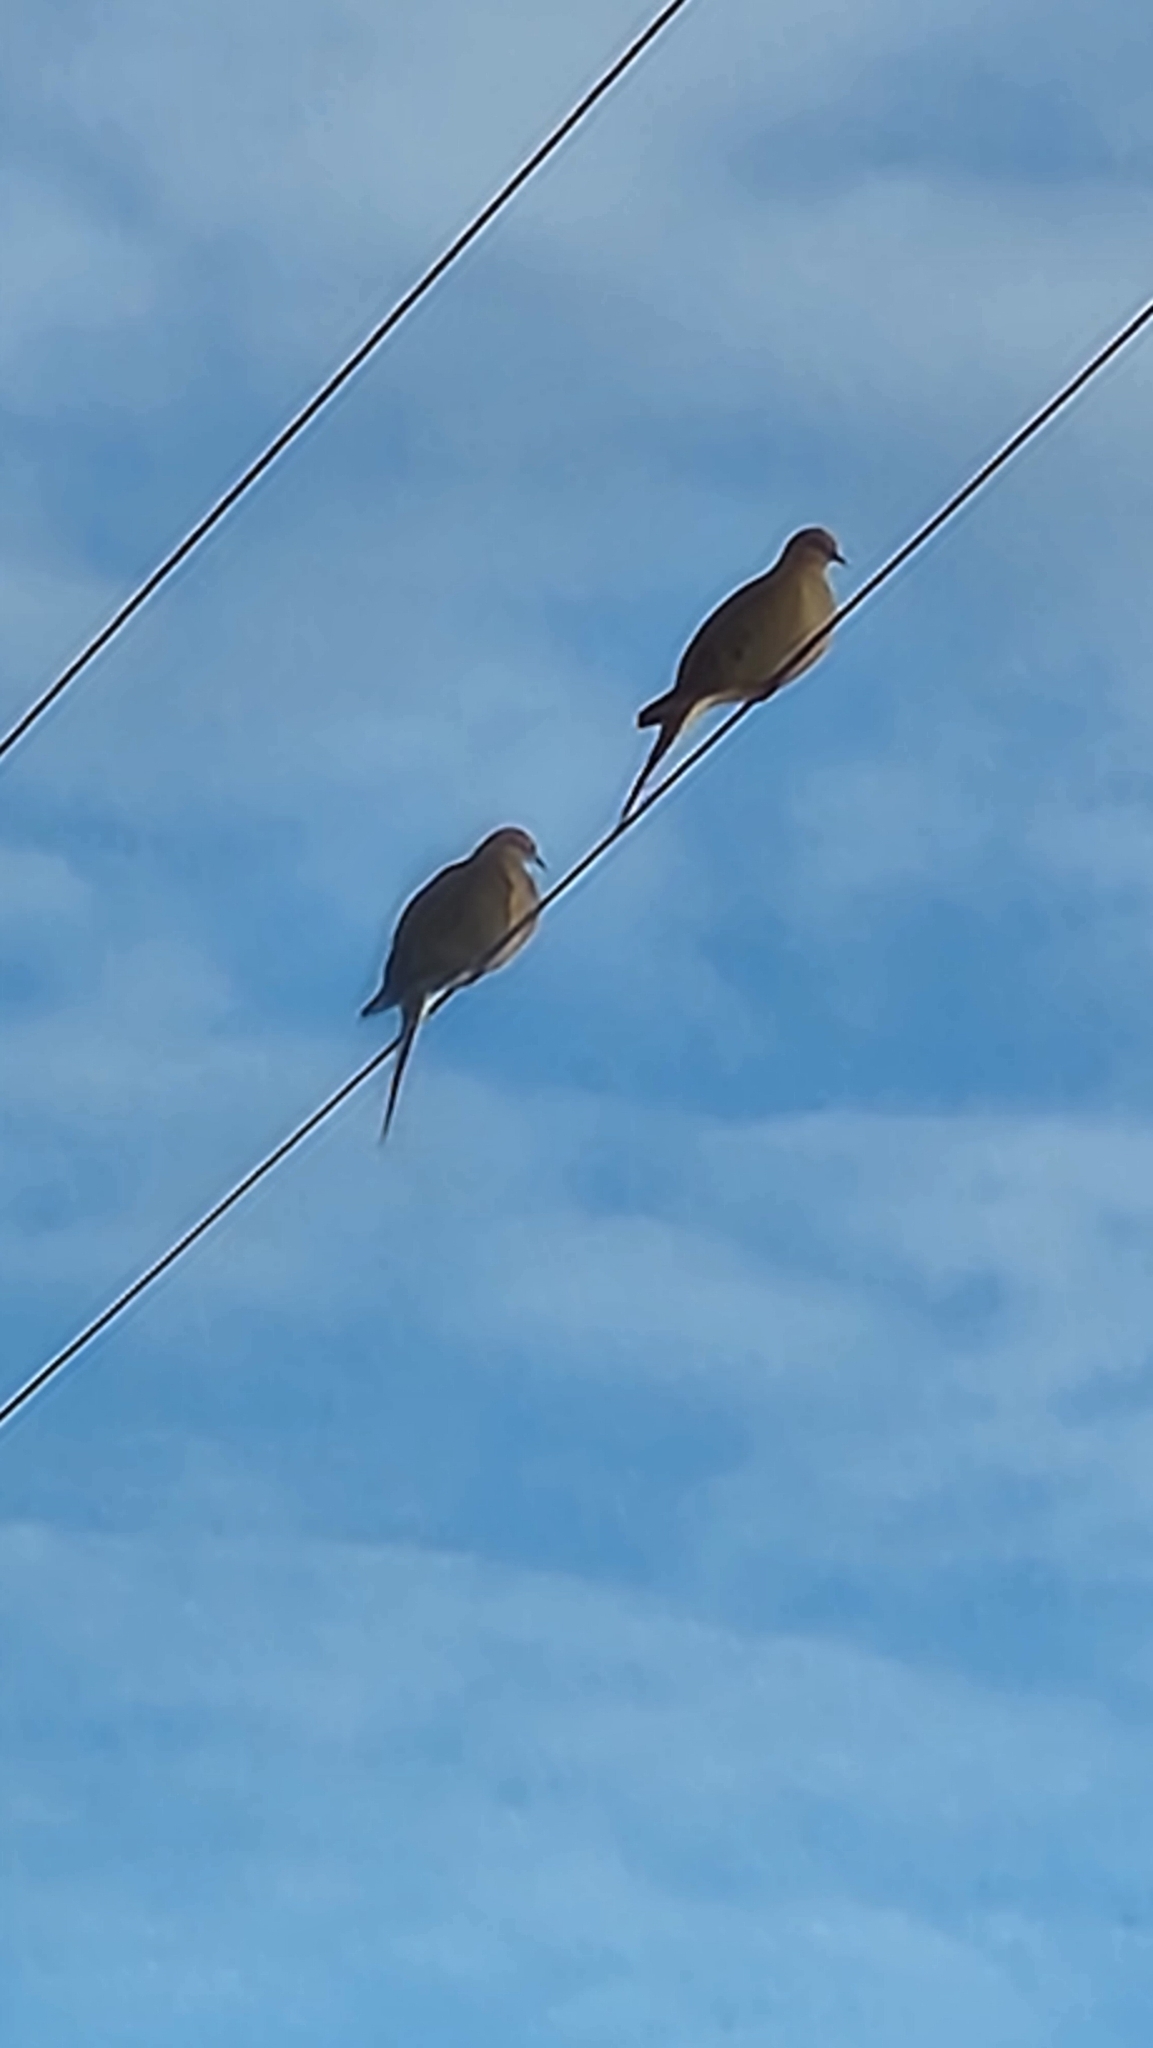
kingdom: Animalia
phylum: Chordata
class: Aves
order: Columbiformes
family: Columbidae
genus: Zenaida
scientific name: Zenaida macroura
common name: Mourning dove
